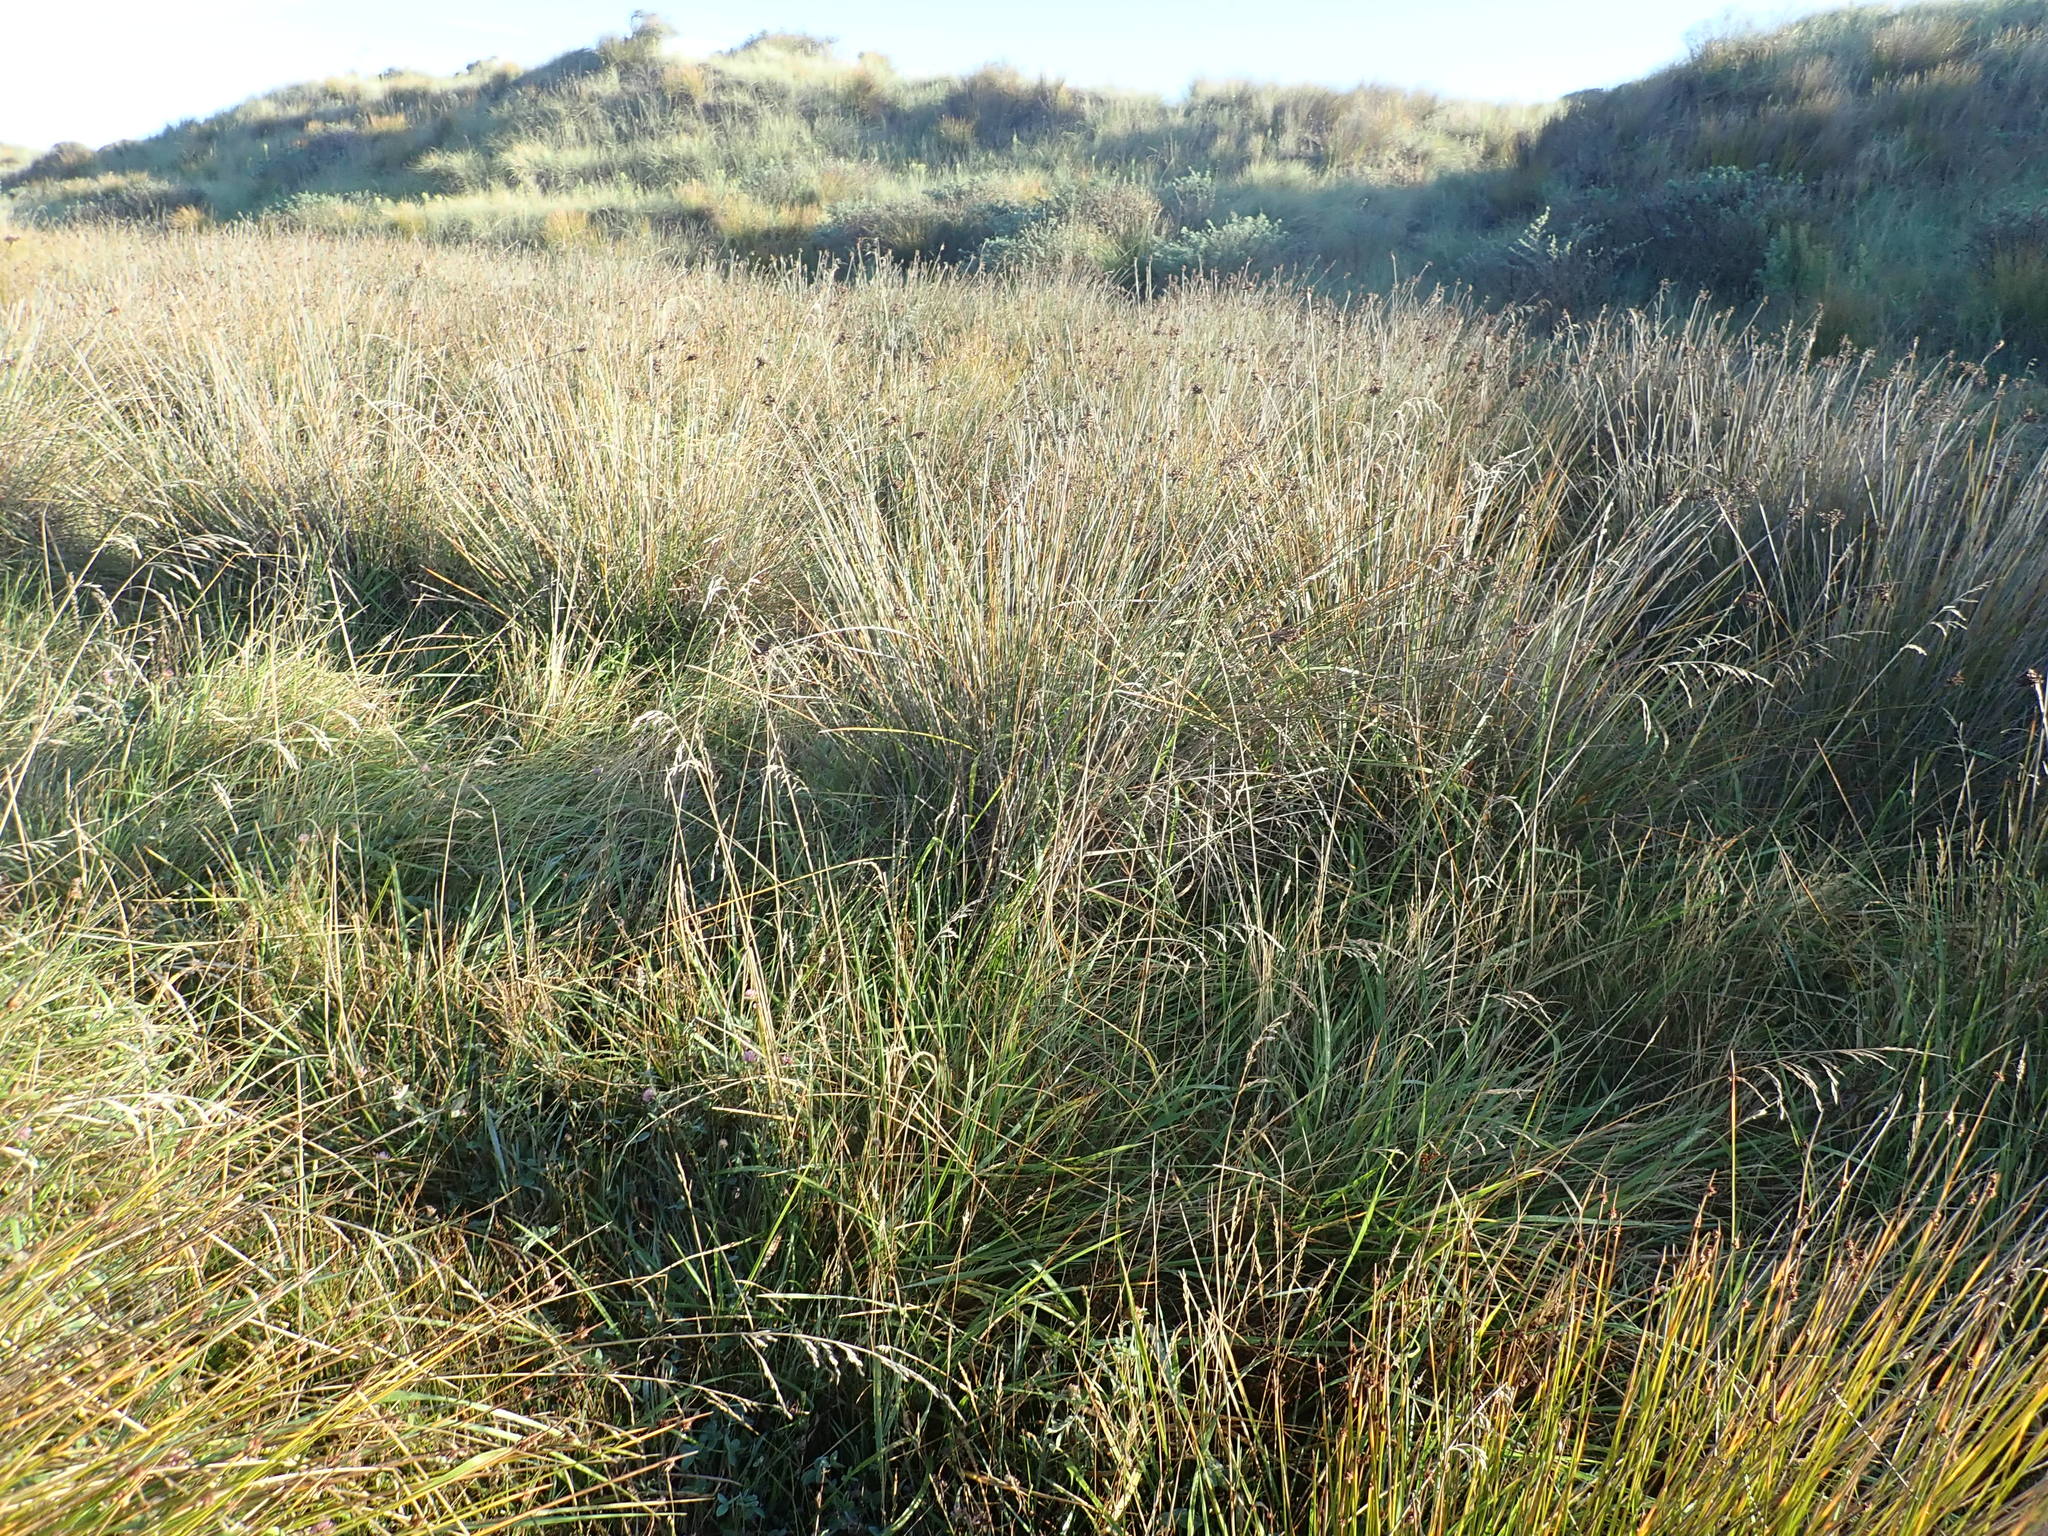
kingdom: Plantae
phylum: Tracheophyta
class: Liliopsida
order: Poales
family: Juncaceae
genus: Juncus
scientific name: Juncus acutus
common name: Sharp rush
